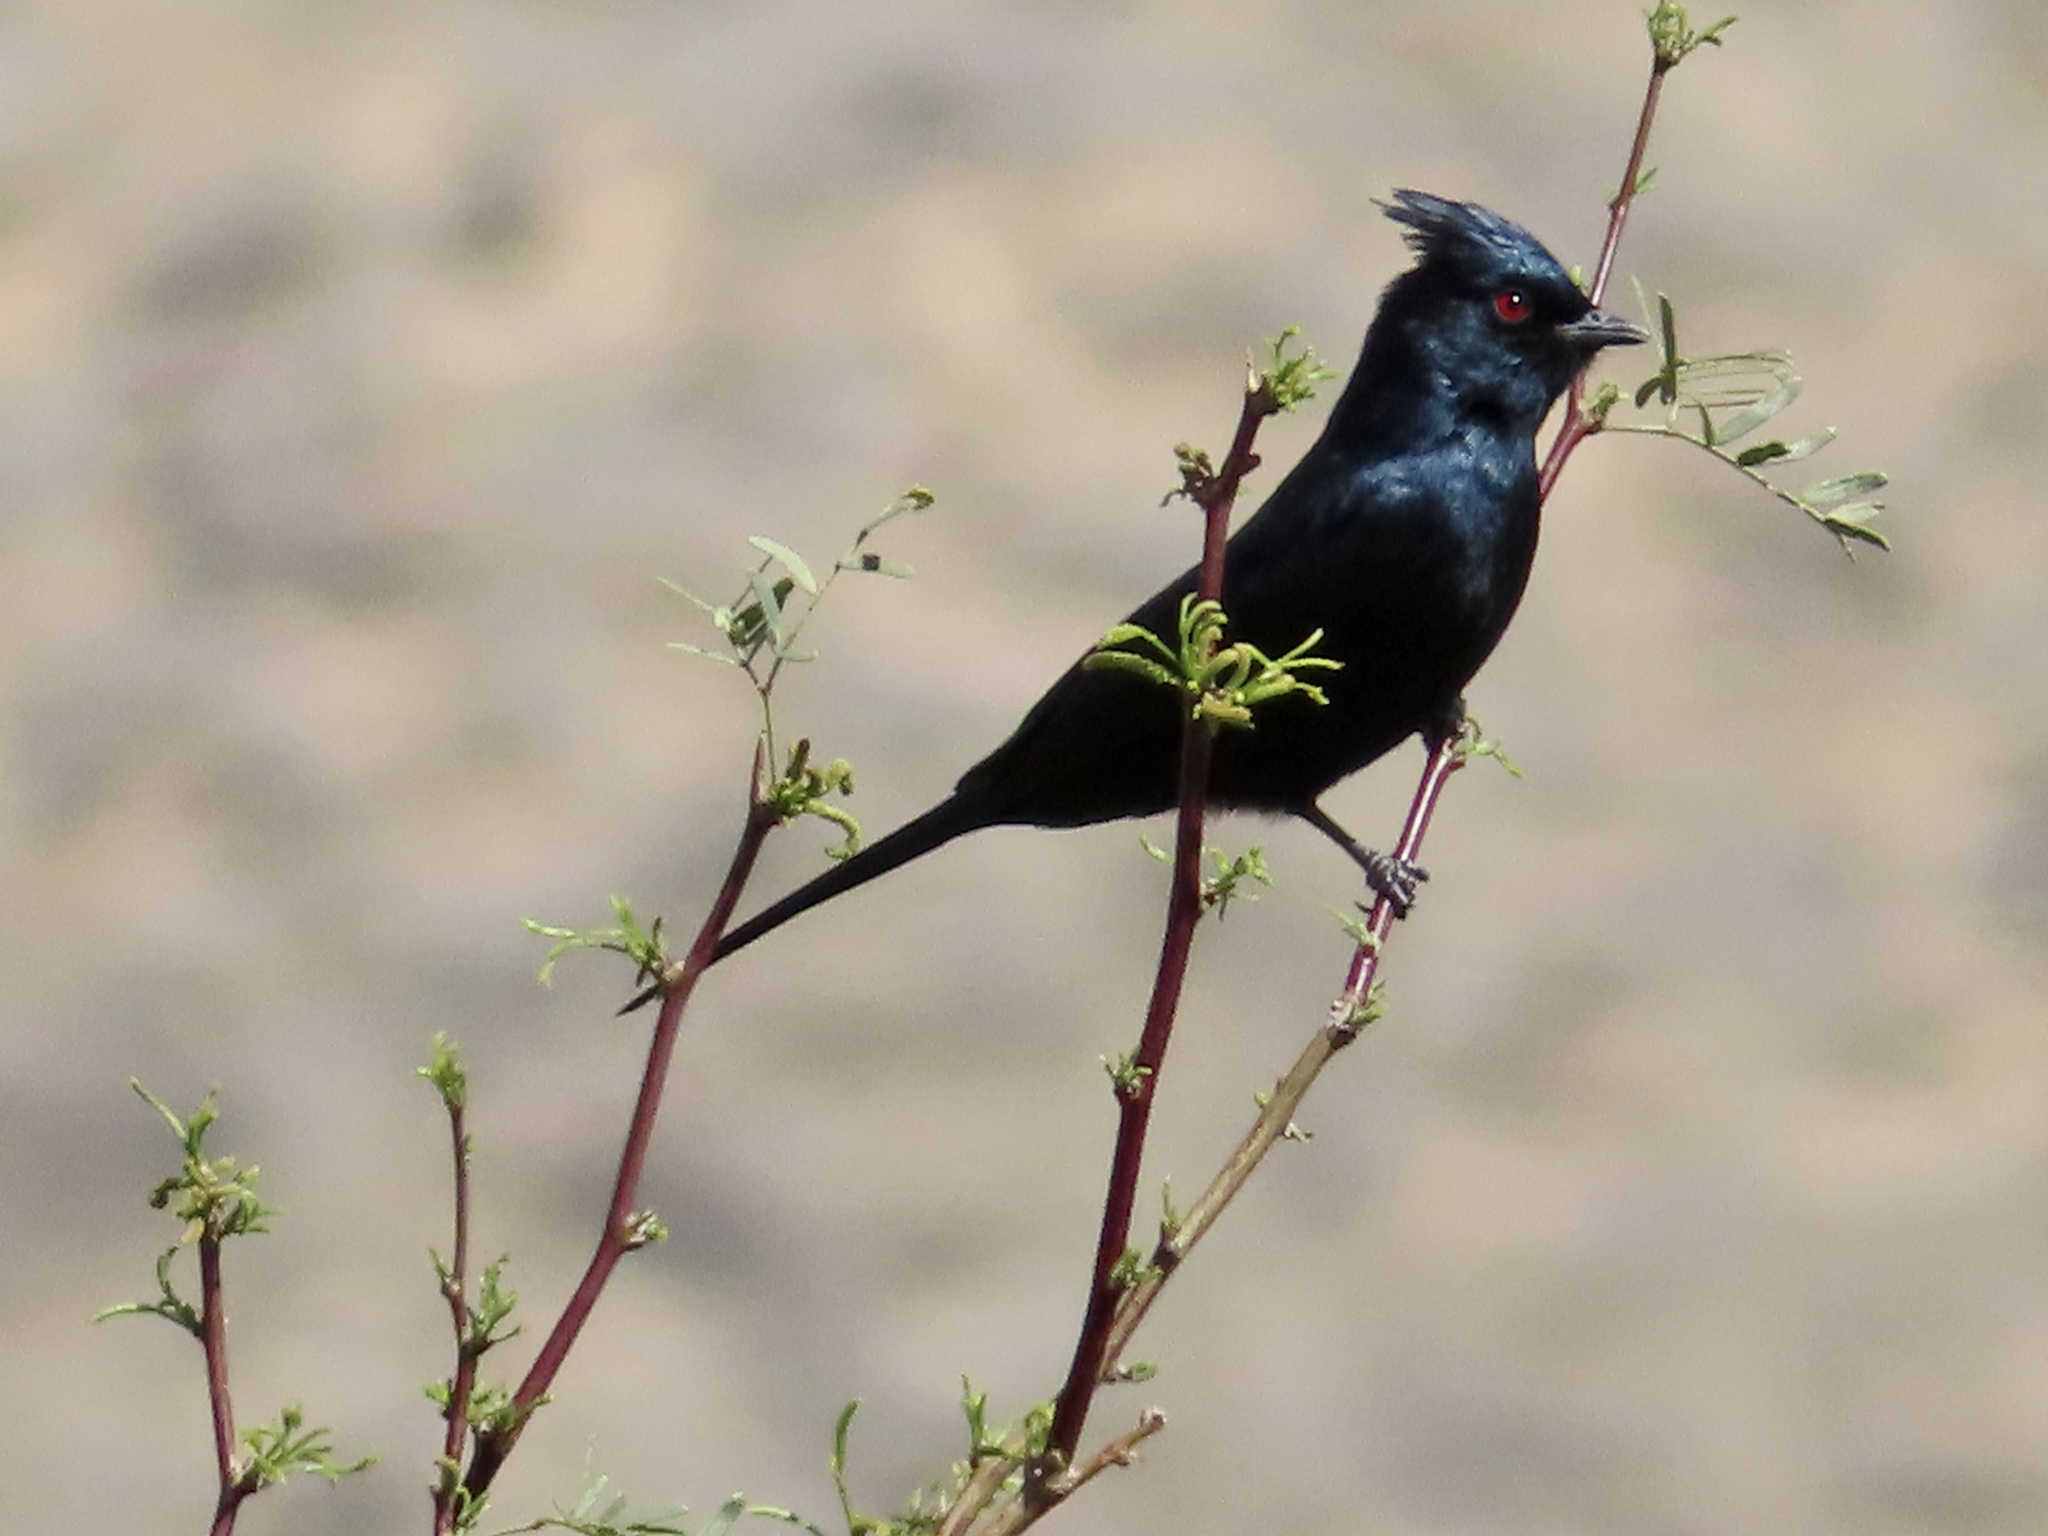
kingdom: Animalia
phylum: Chordata
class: Aves
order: Passeriformes
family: Ptilogonatidae
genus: Phainopepla
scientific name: Phainopepla nitens
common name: Phainopepla
